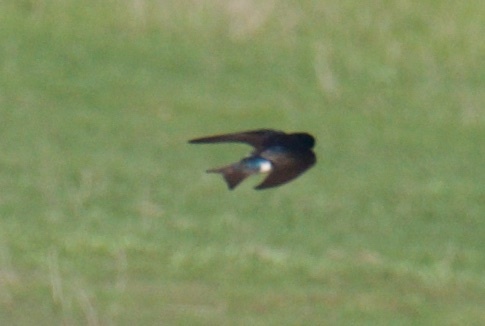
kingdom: Animalia
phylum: Chordata
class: Aves
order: Passeriformes
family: Hirundinidae
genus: Tachycineta
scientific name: Tachycineta bicolor
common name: Tree swallow
